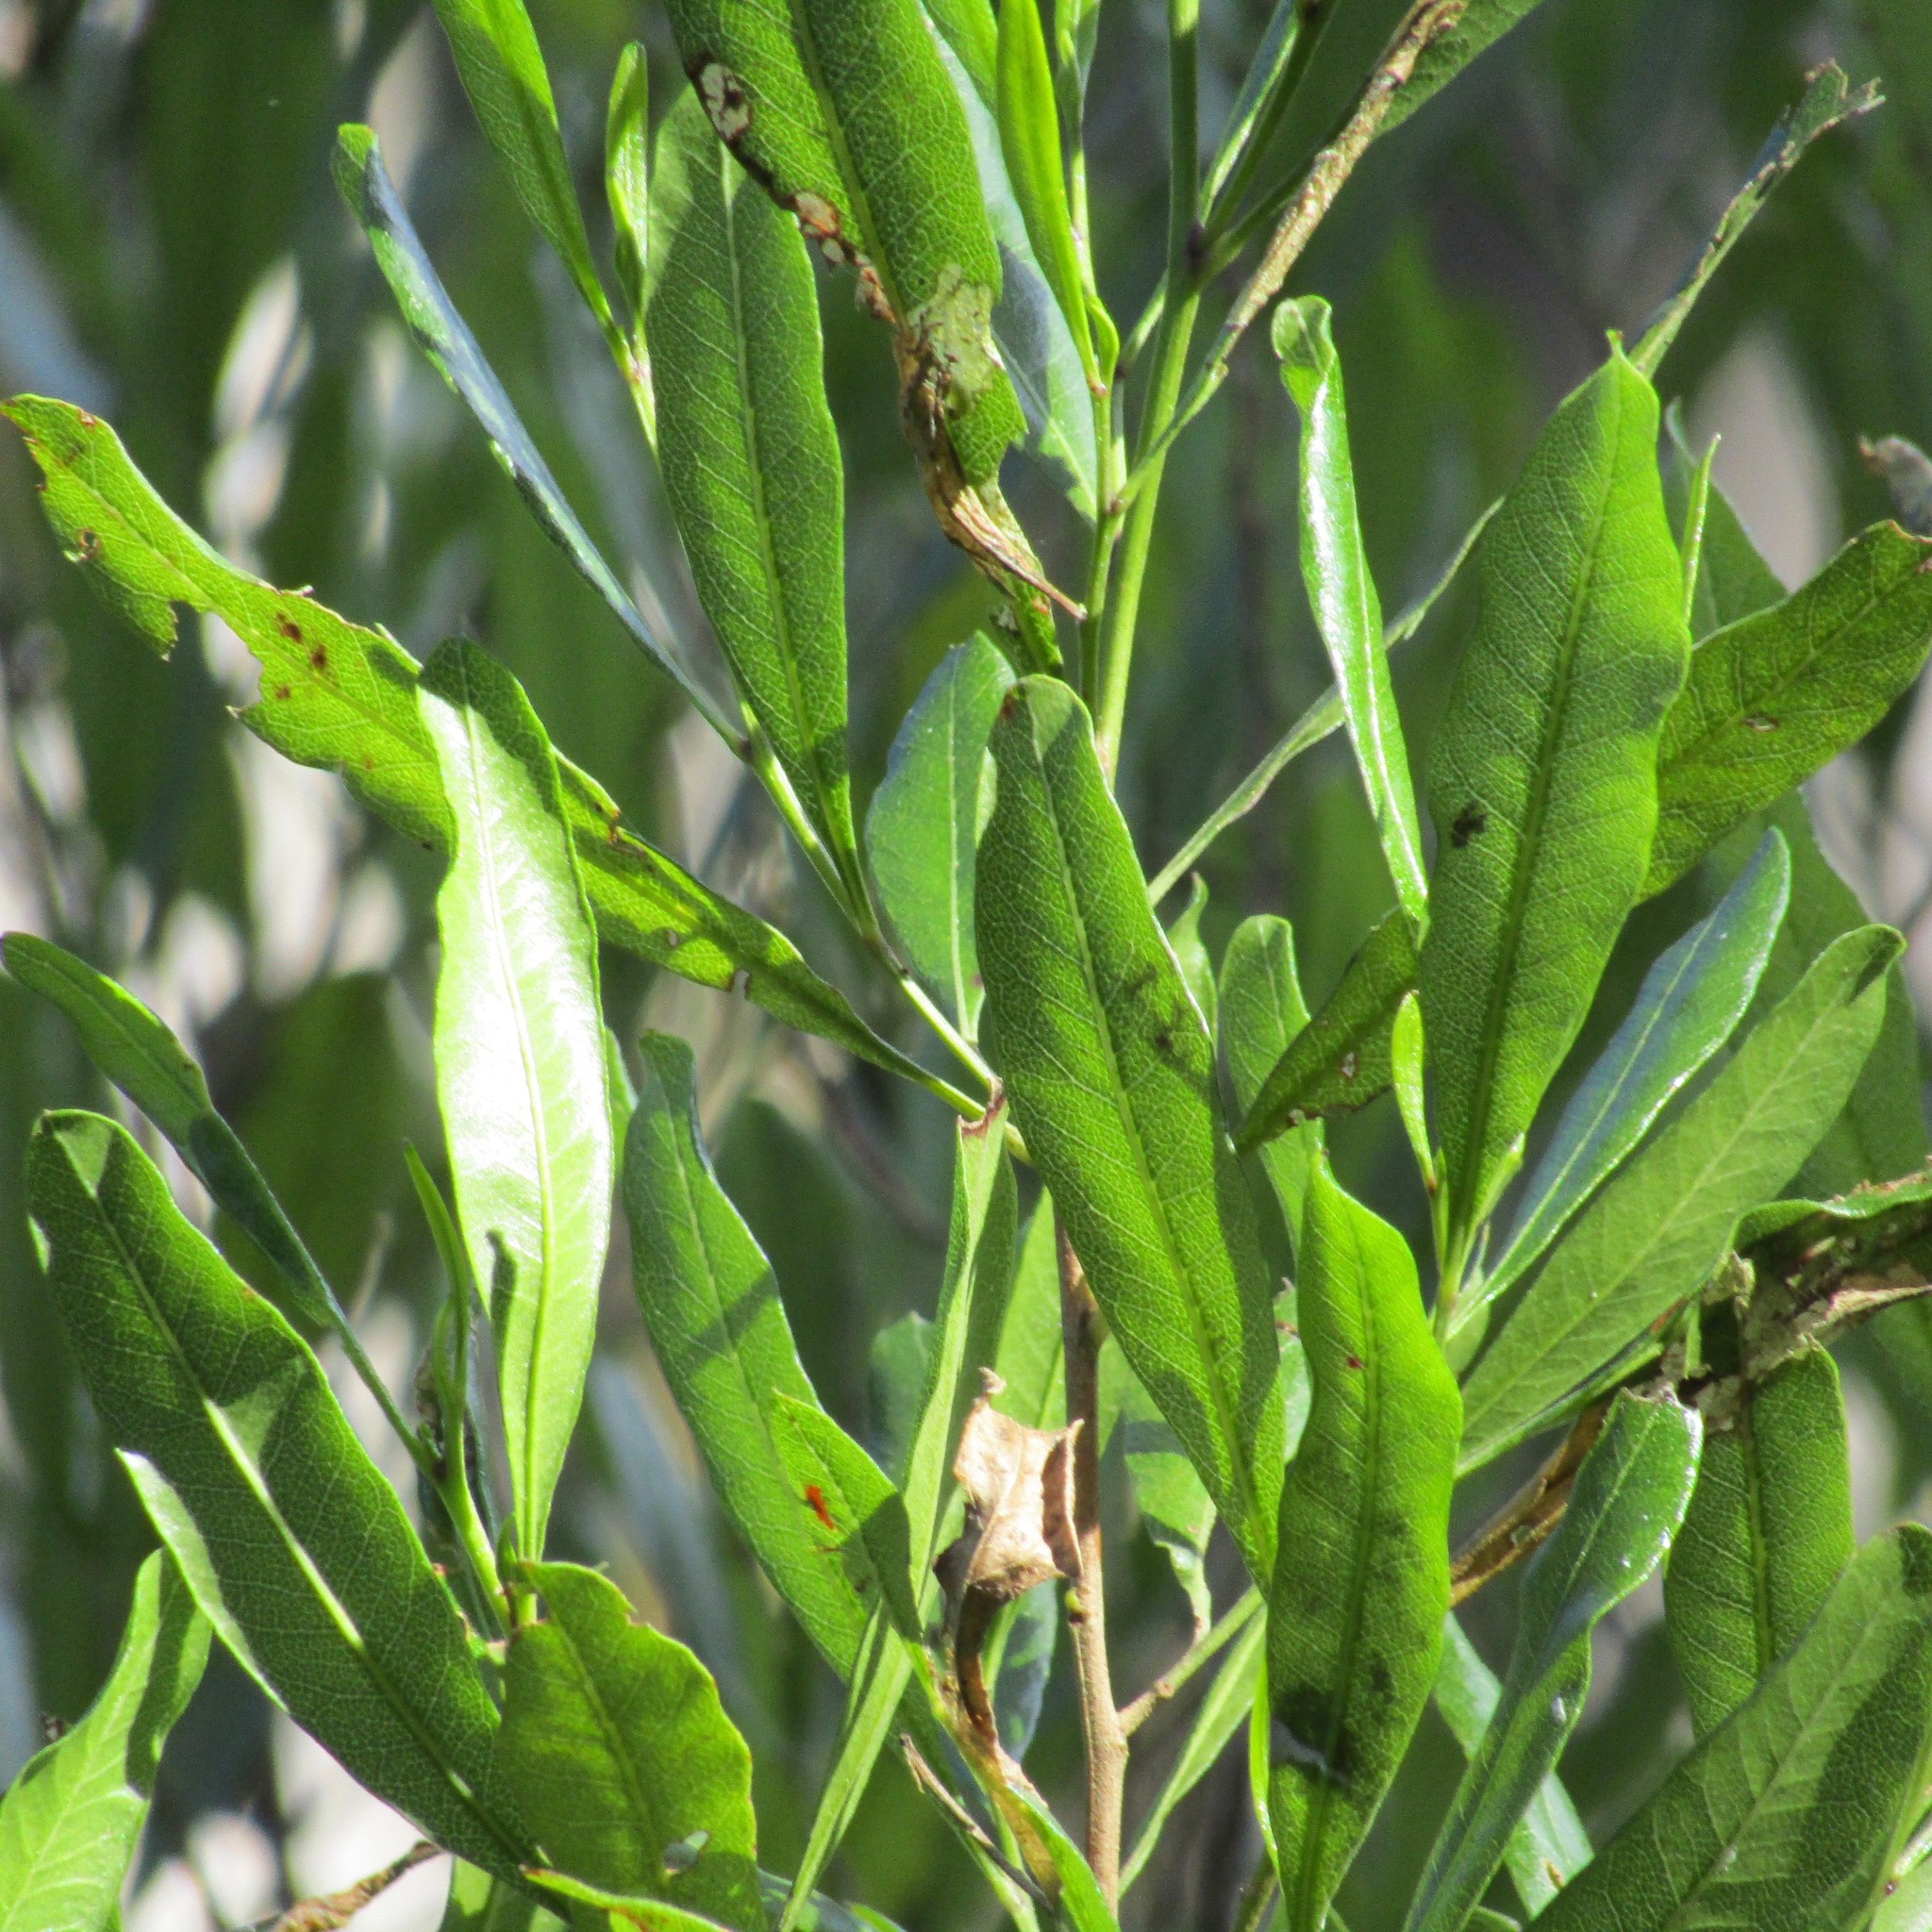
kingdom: Plantae
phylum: Tracheophyta
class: Magnoliopsida
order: Sapindales
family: Sapindaceae
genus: Dodonaea
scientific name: Dodonaea viscosa
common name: Hopbush
